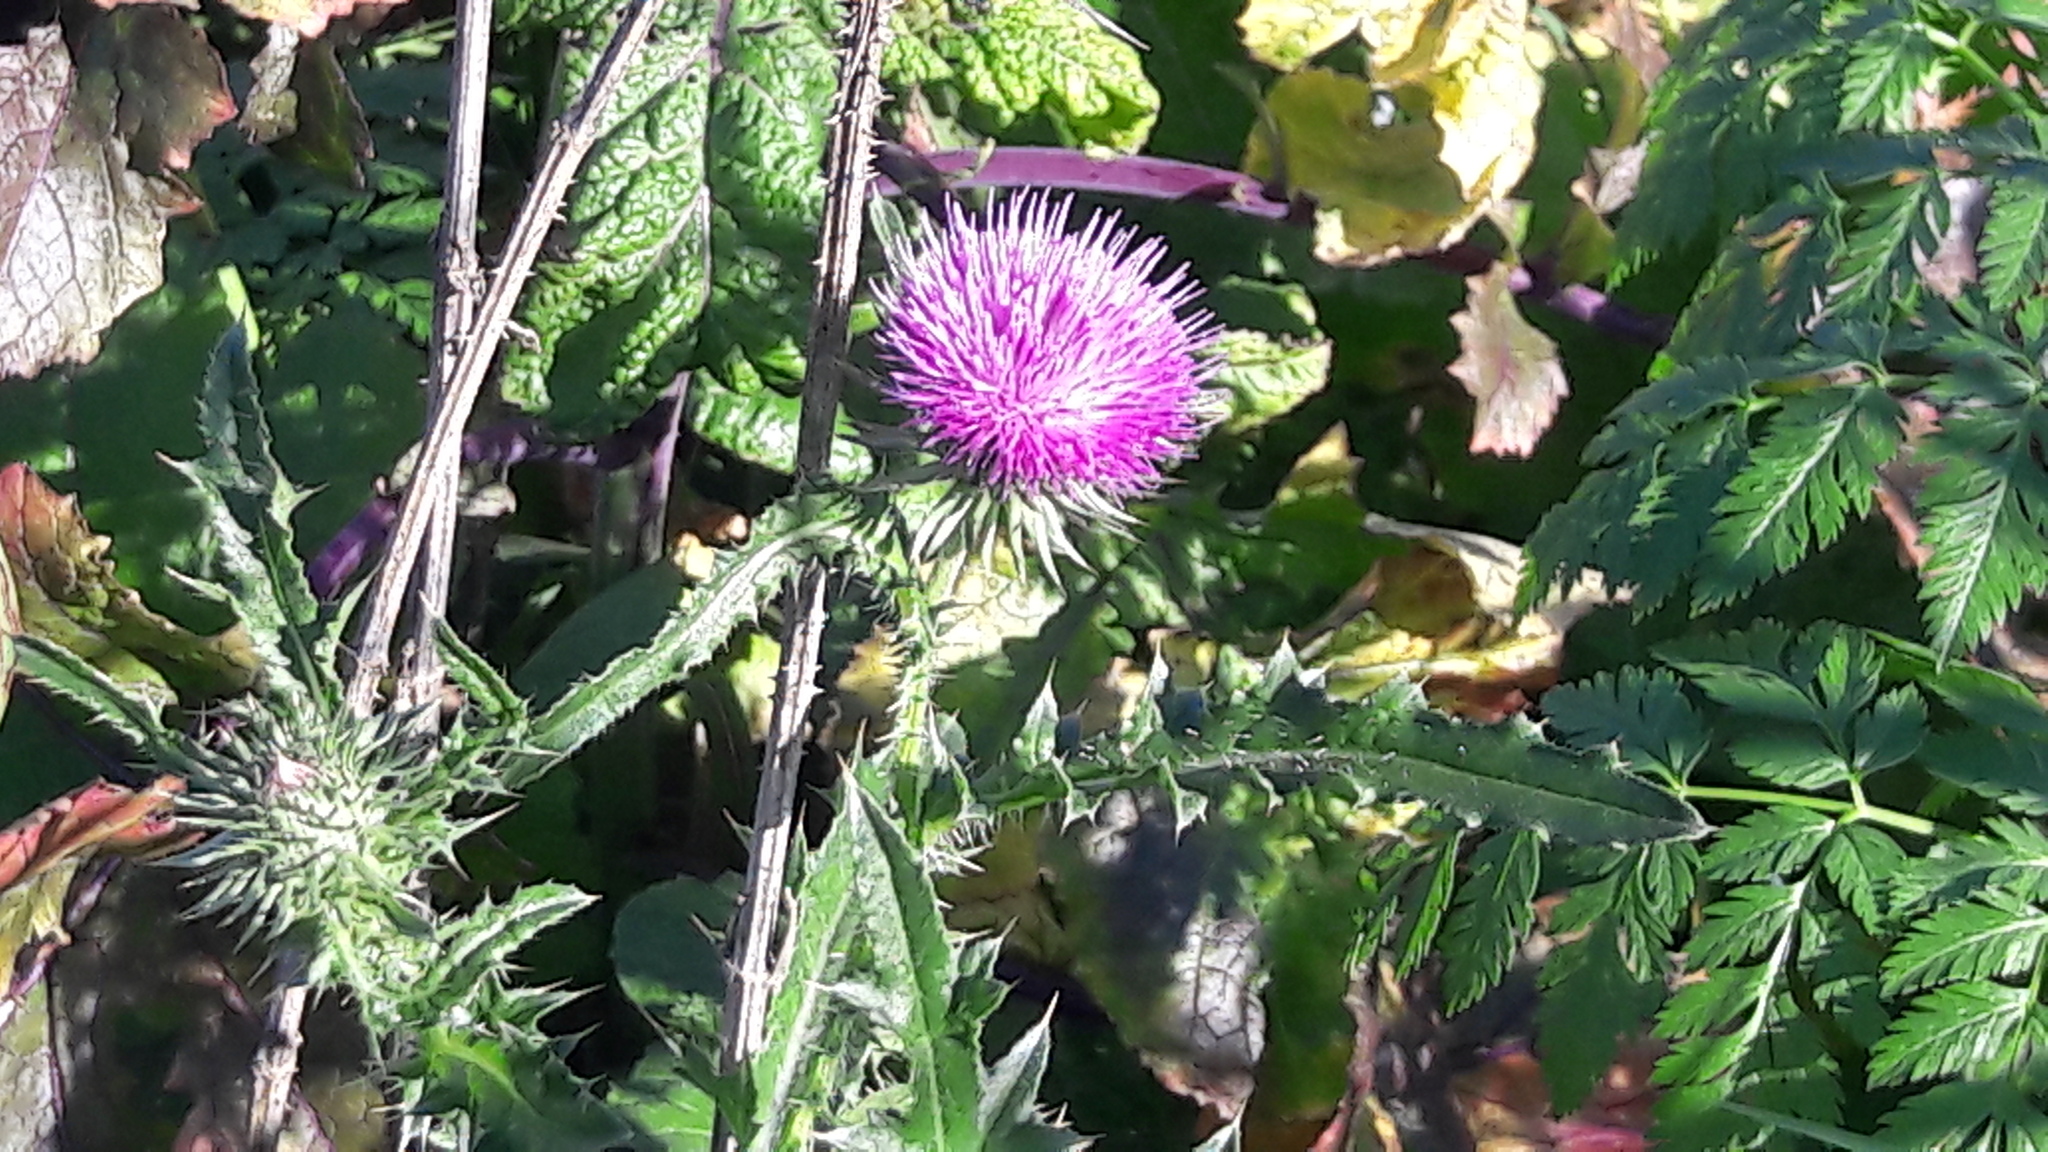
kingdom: Plantae
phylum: Tracheophyta
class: Magnoliopsida
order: Asterales
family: Asteraceae
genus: Carduus
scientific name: Carduus acanthoides
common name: Plumeless thistle
